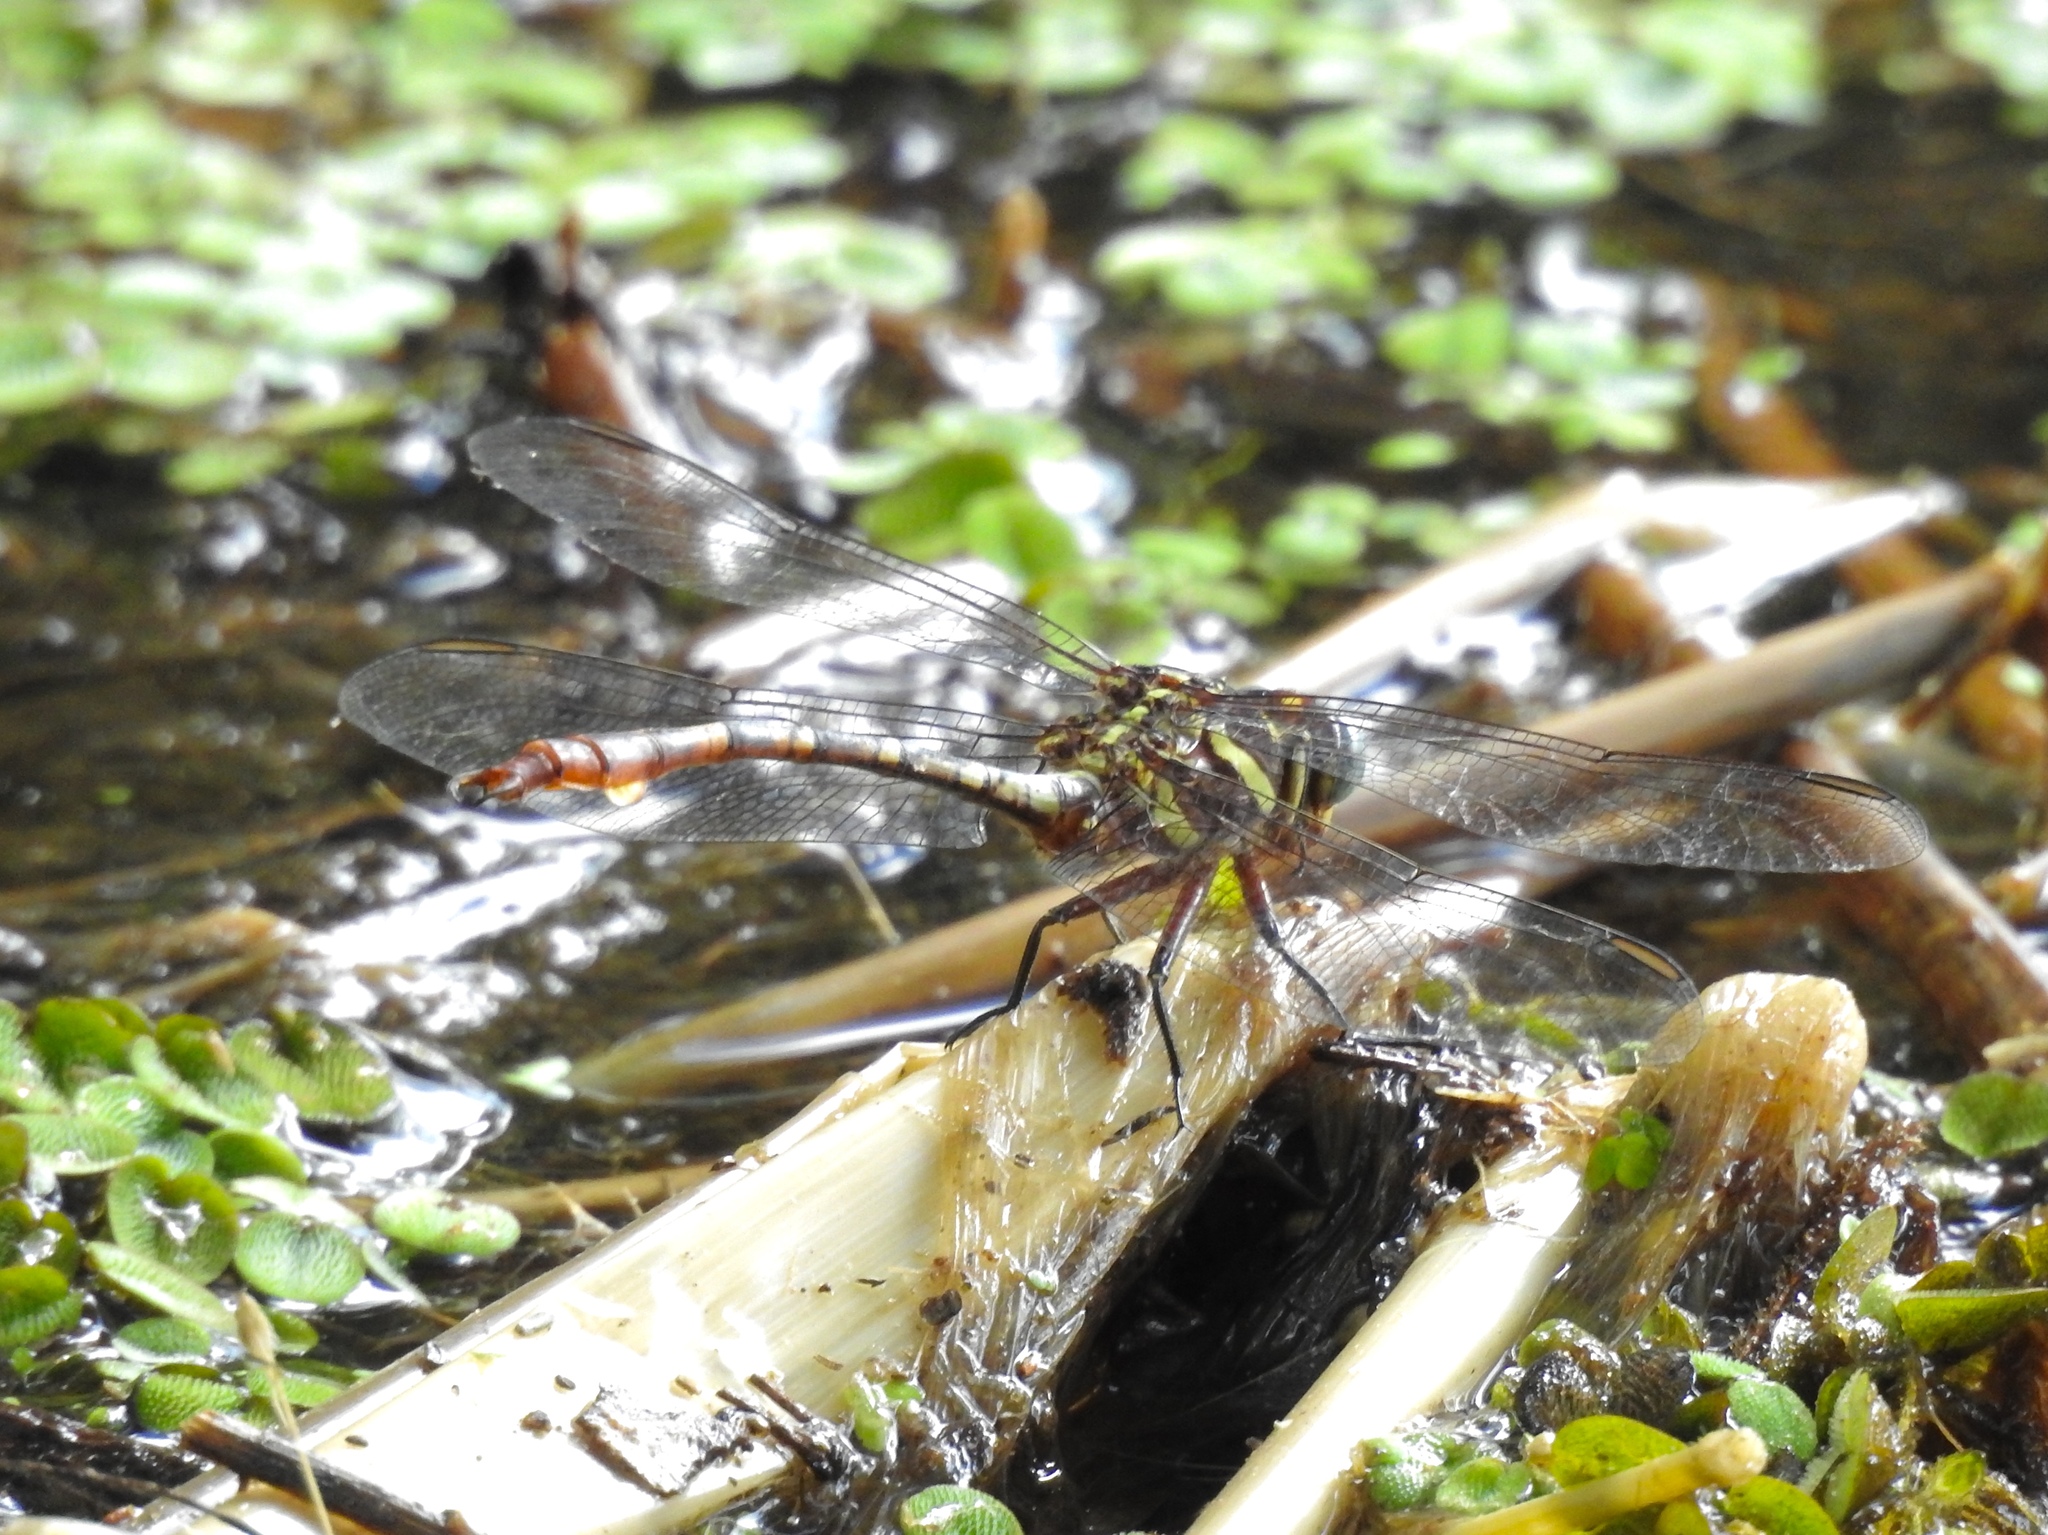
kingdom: Animalia
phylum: Arthropoda
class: Insecta
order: Odonata
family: Gomphidae
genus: Aphylla
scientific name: Aphylla williamsoni
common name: Two-striped forceptail
